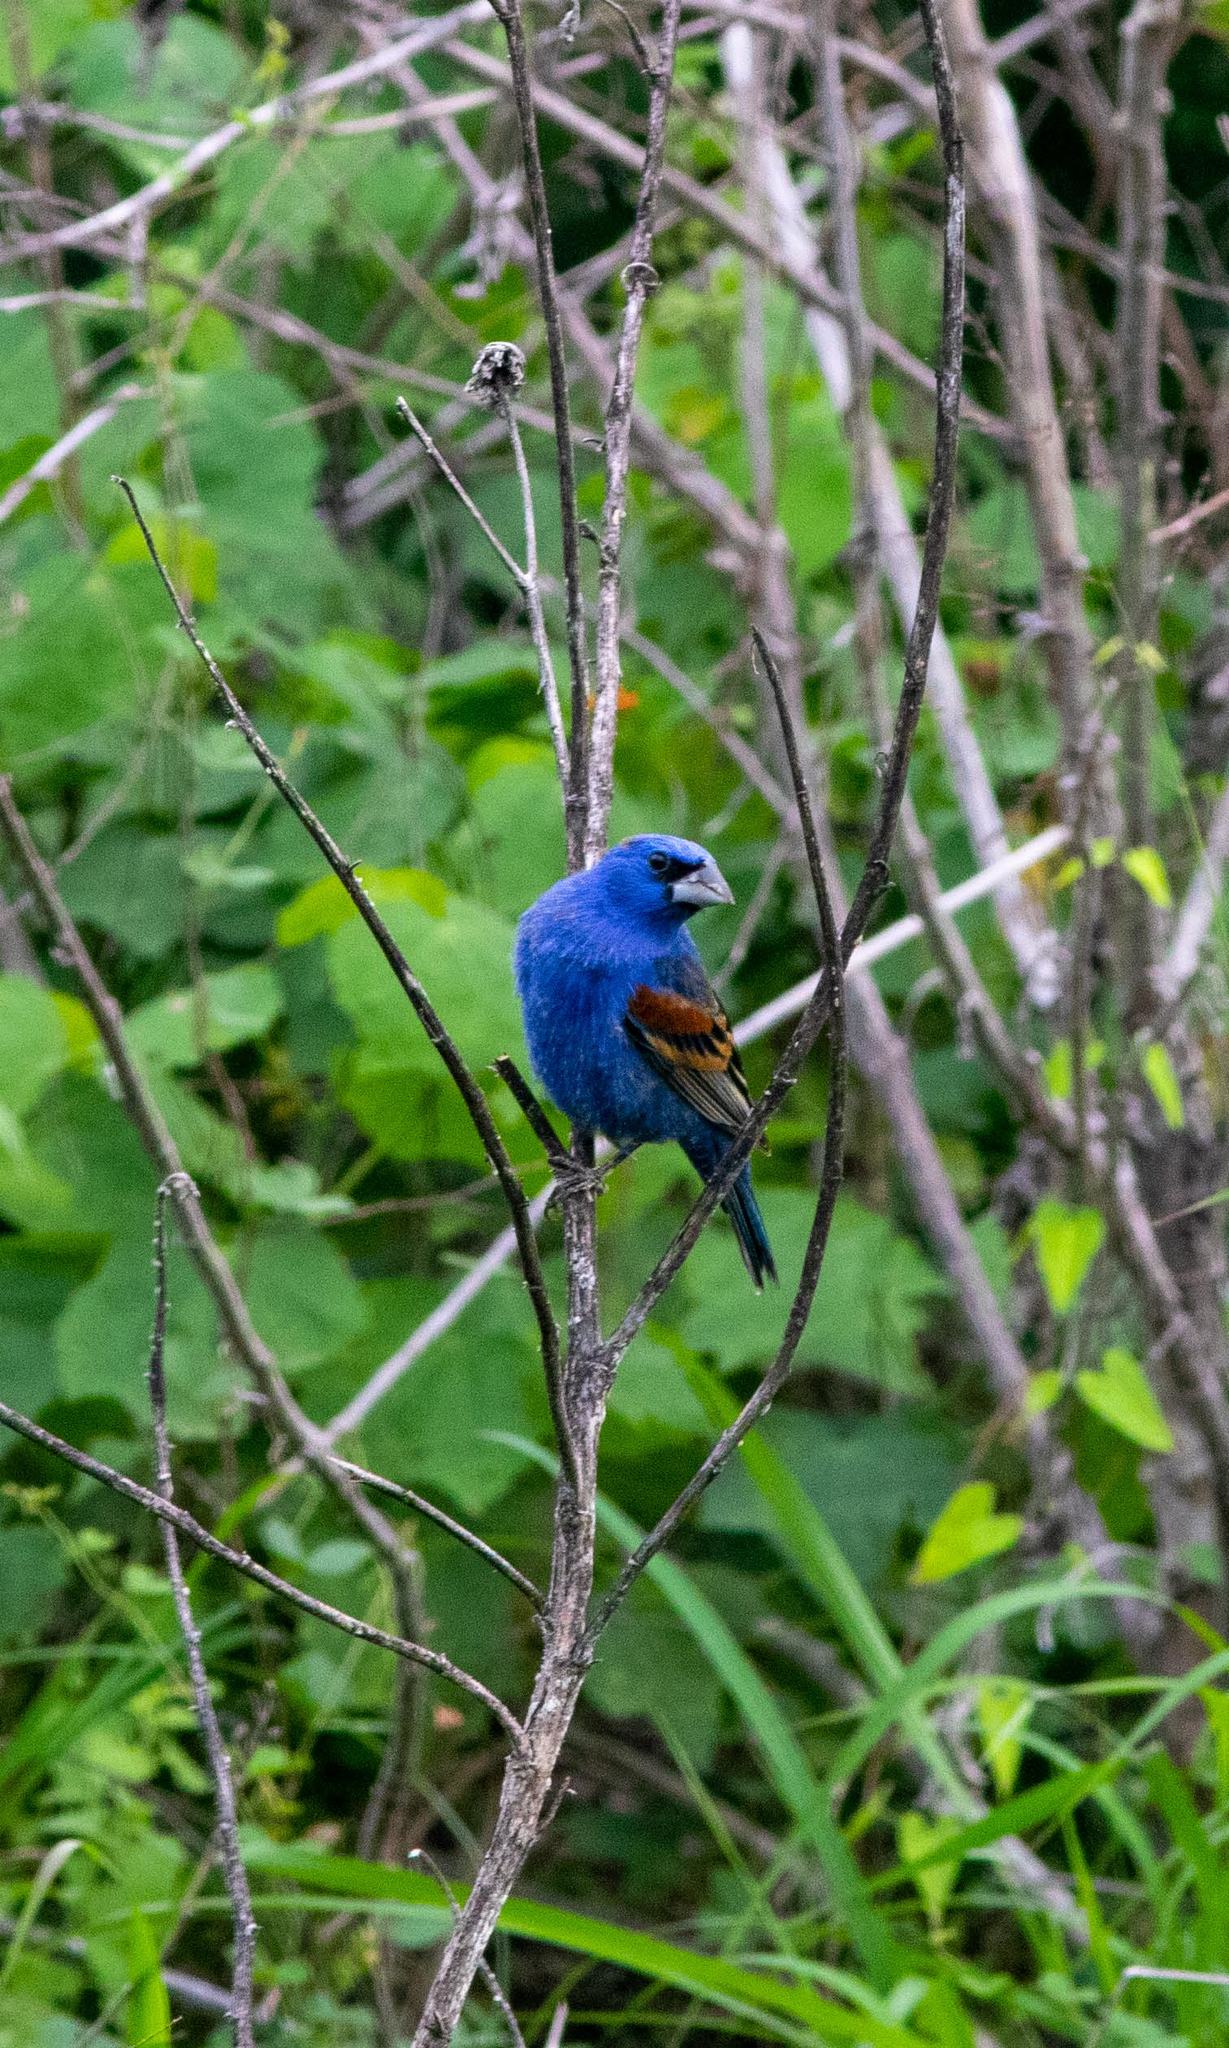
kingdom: Animalia
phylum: Chordata
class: Aves
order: Passeriformes
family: Cardinalidae
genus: Passerina
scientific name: Passerina caerulea
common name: Blue grosbeak
